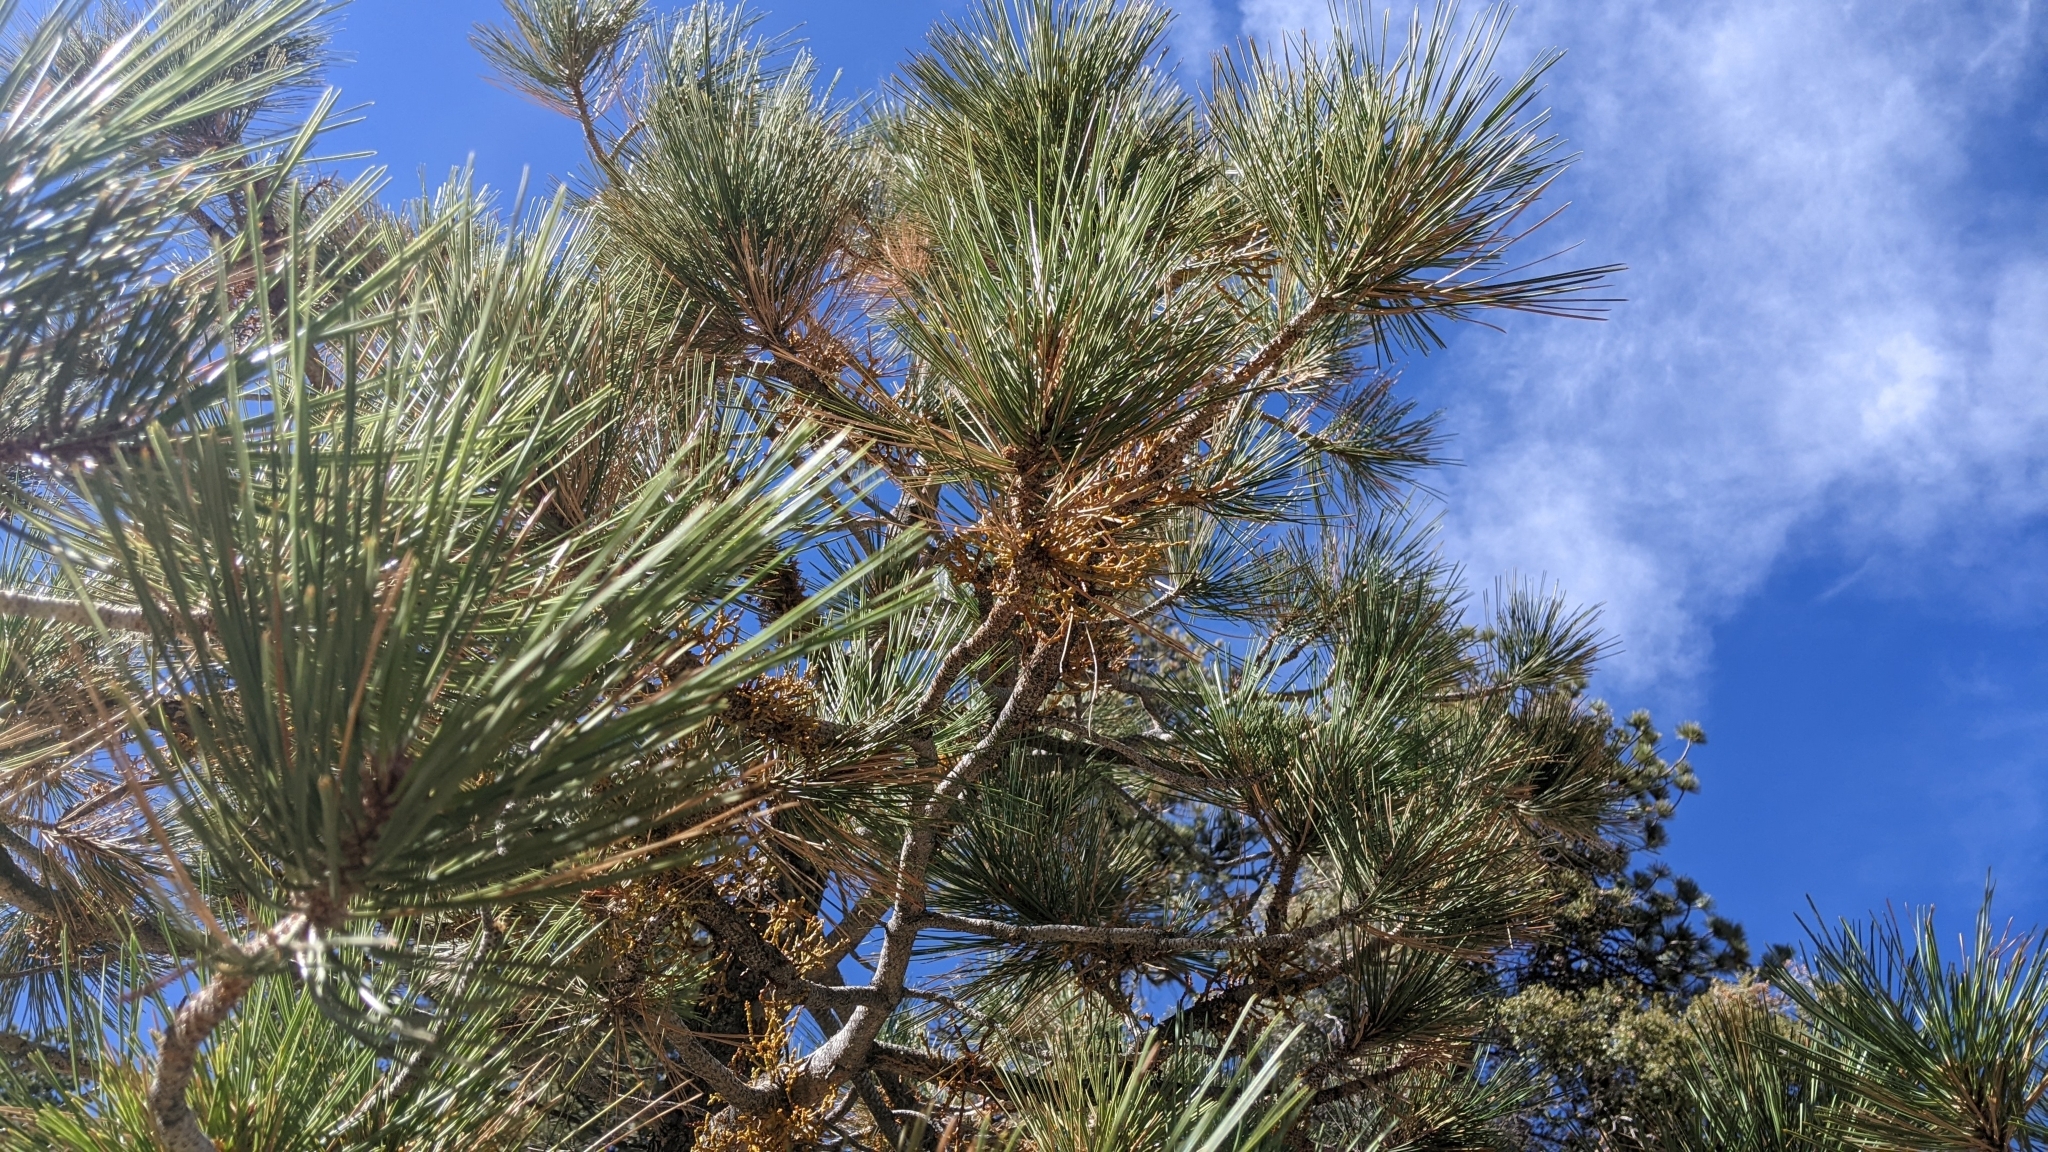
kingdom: Plantae
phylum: Tracheophyta
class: Magnoliopsida
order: Santalales
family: Viscaceae
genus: Arceuthobium
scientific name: Arceuthobium campylopodum
